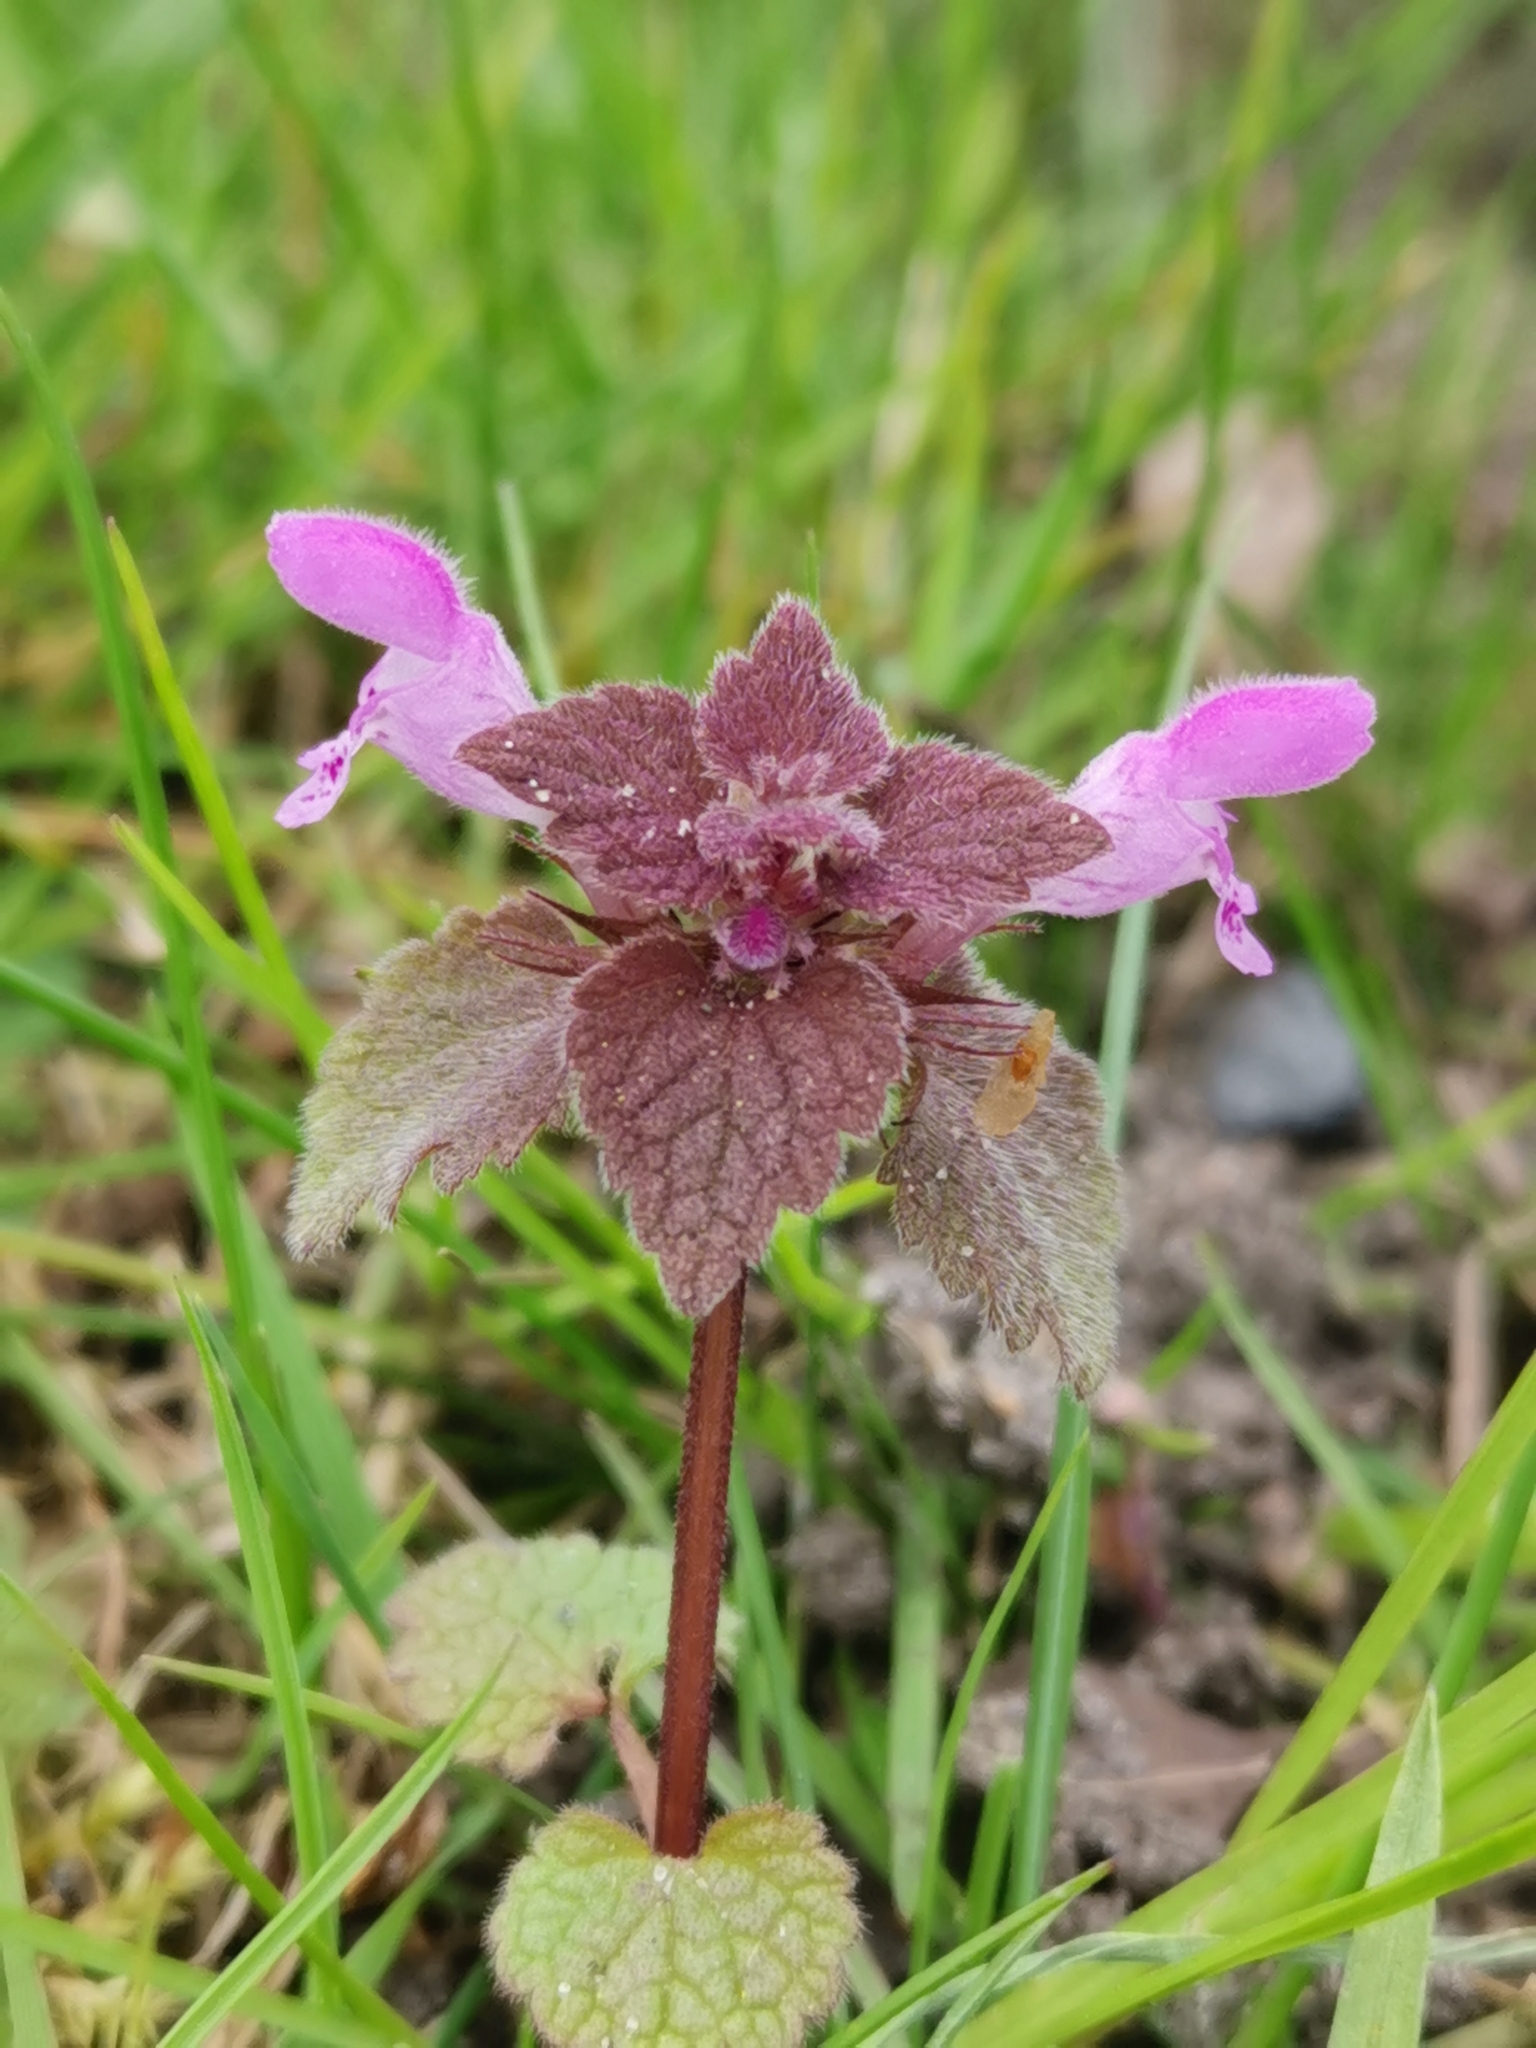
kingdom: Plantae
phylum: Tracheophyta
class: Magnoliopsida
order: Lamiales
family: Lamiaceae
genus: Lamium
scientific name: Lamium purpureum
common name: Red dead-nettle
